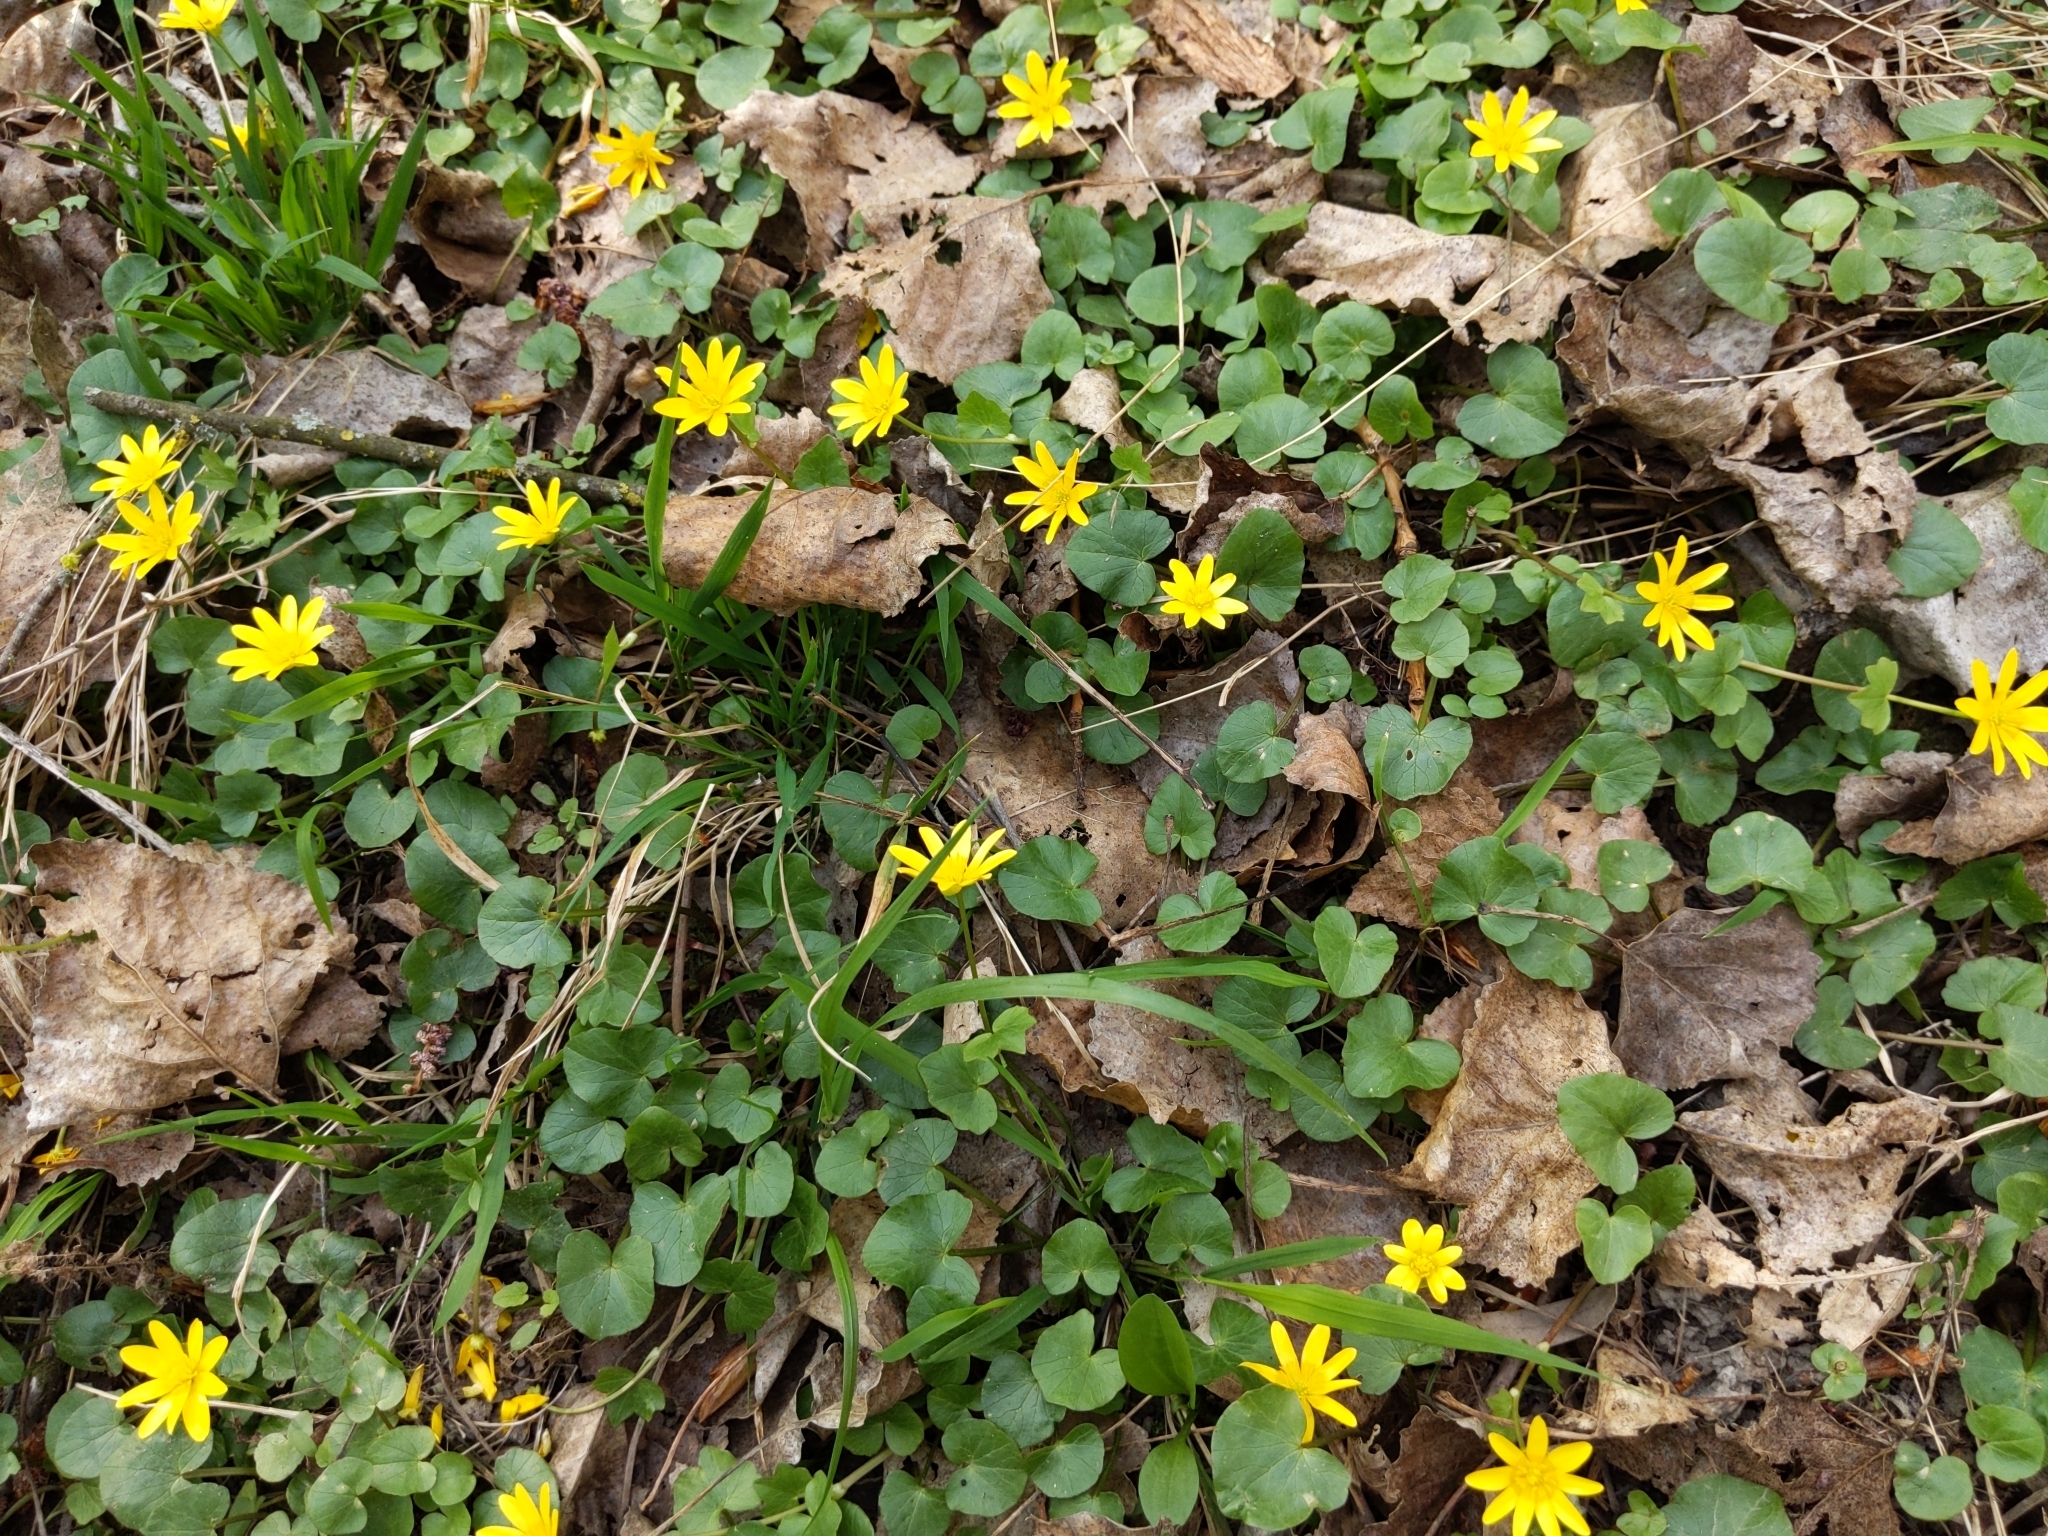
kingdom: Plantae
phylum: Tracheophyta
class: Magnoliopsida
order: Ranunculales
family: Ranunculaceae
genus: Ficaria
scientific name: Ficaria verna
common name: Lesser celandine
